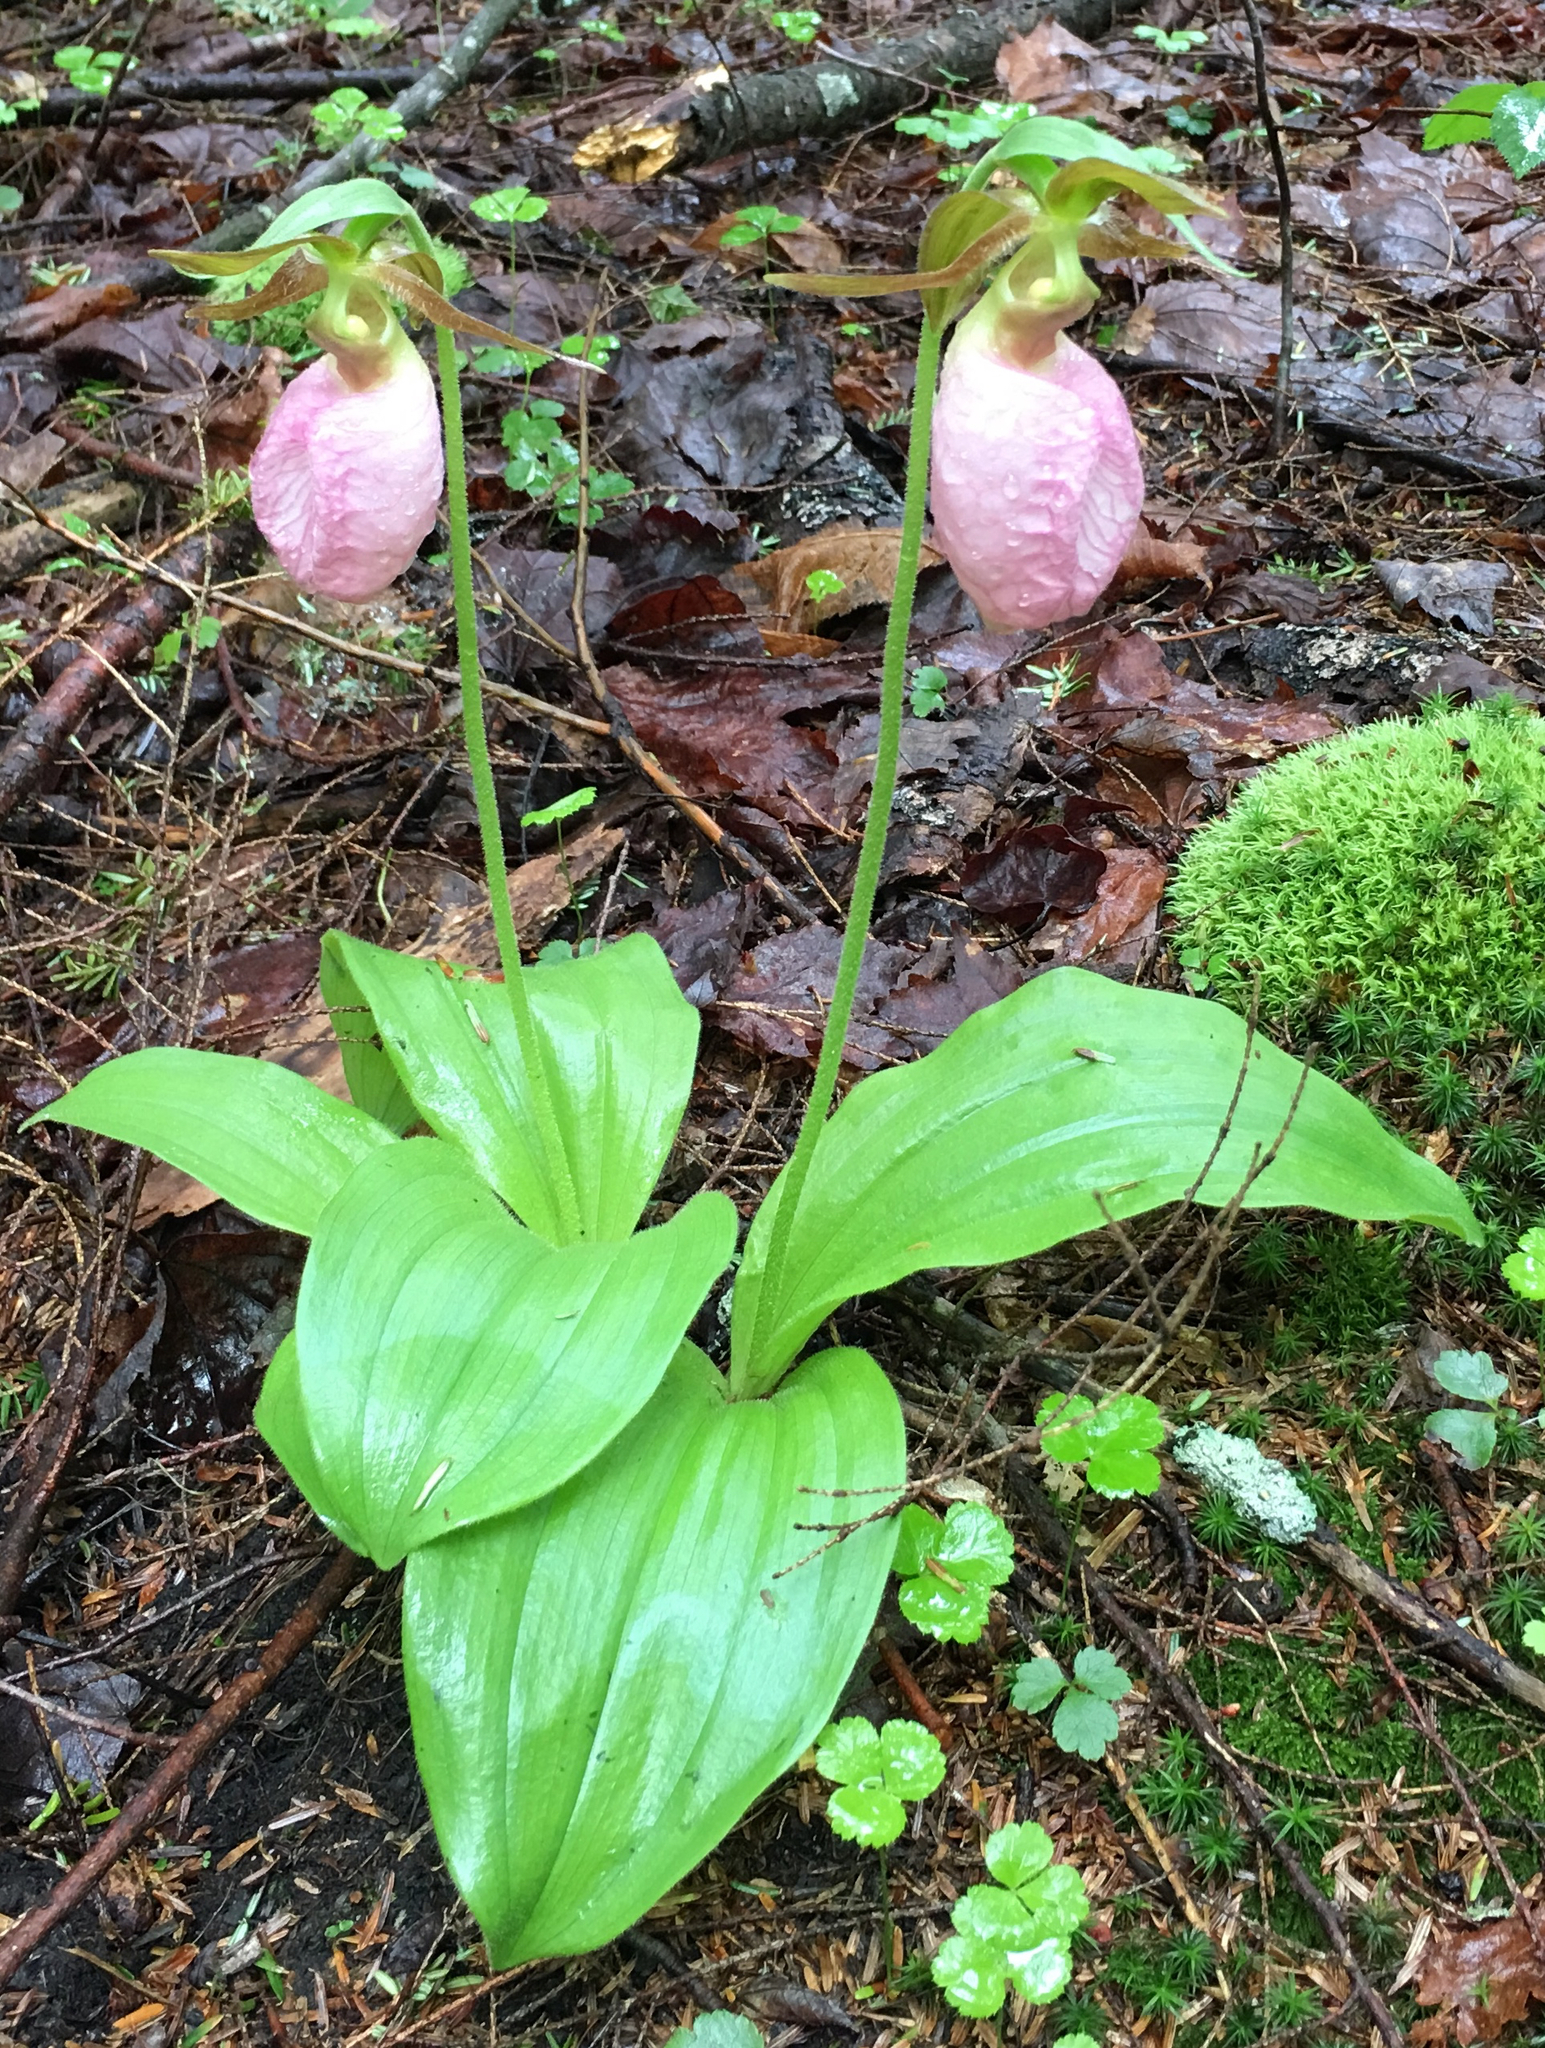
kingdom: Plantae
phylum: Tracheophyta
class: Liliopsida
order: Asparagales
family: Orchidaceae
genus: Cypripedium
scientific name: Cypripedium acaule
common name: Pink lady's-slipper
